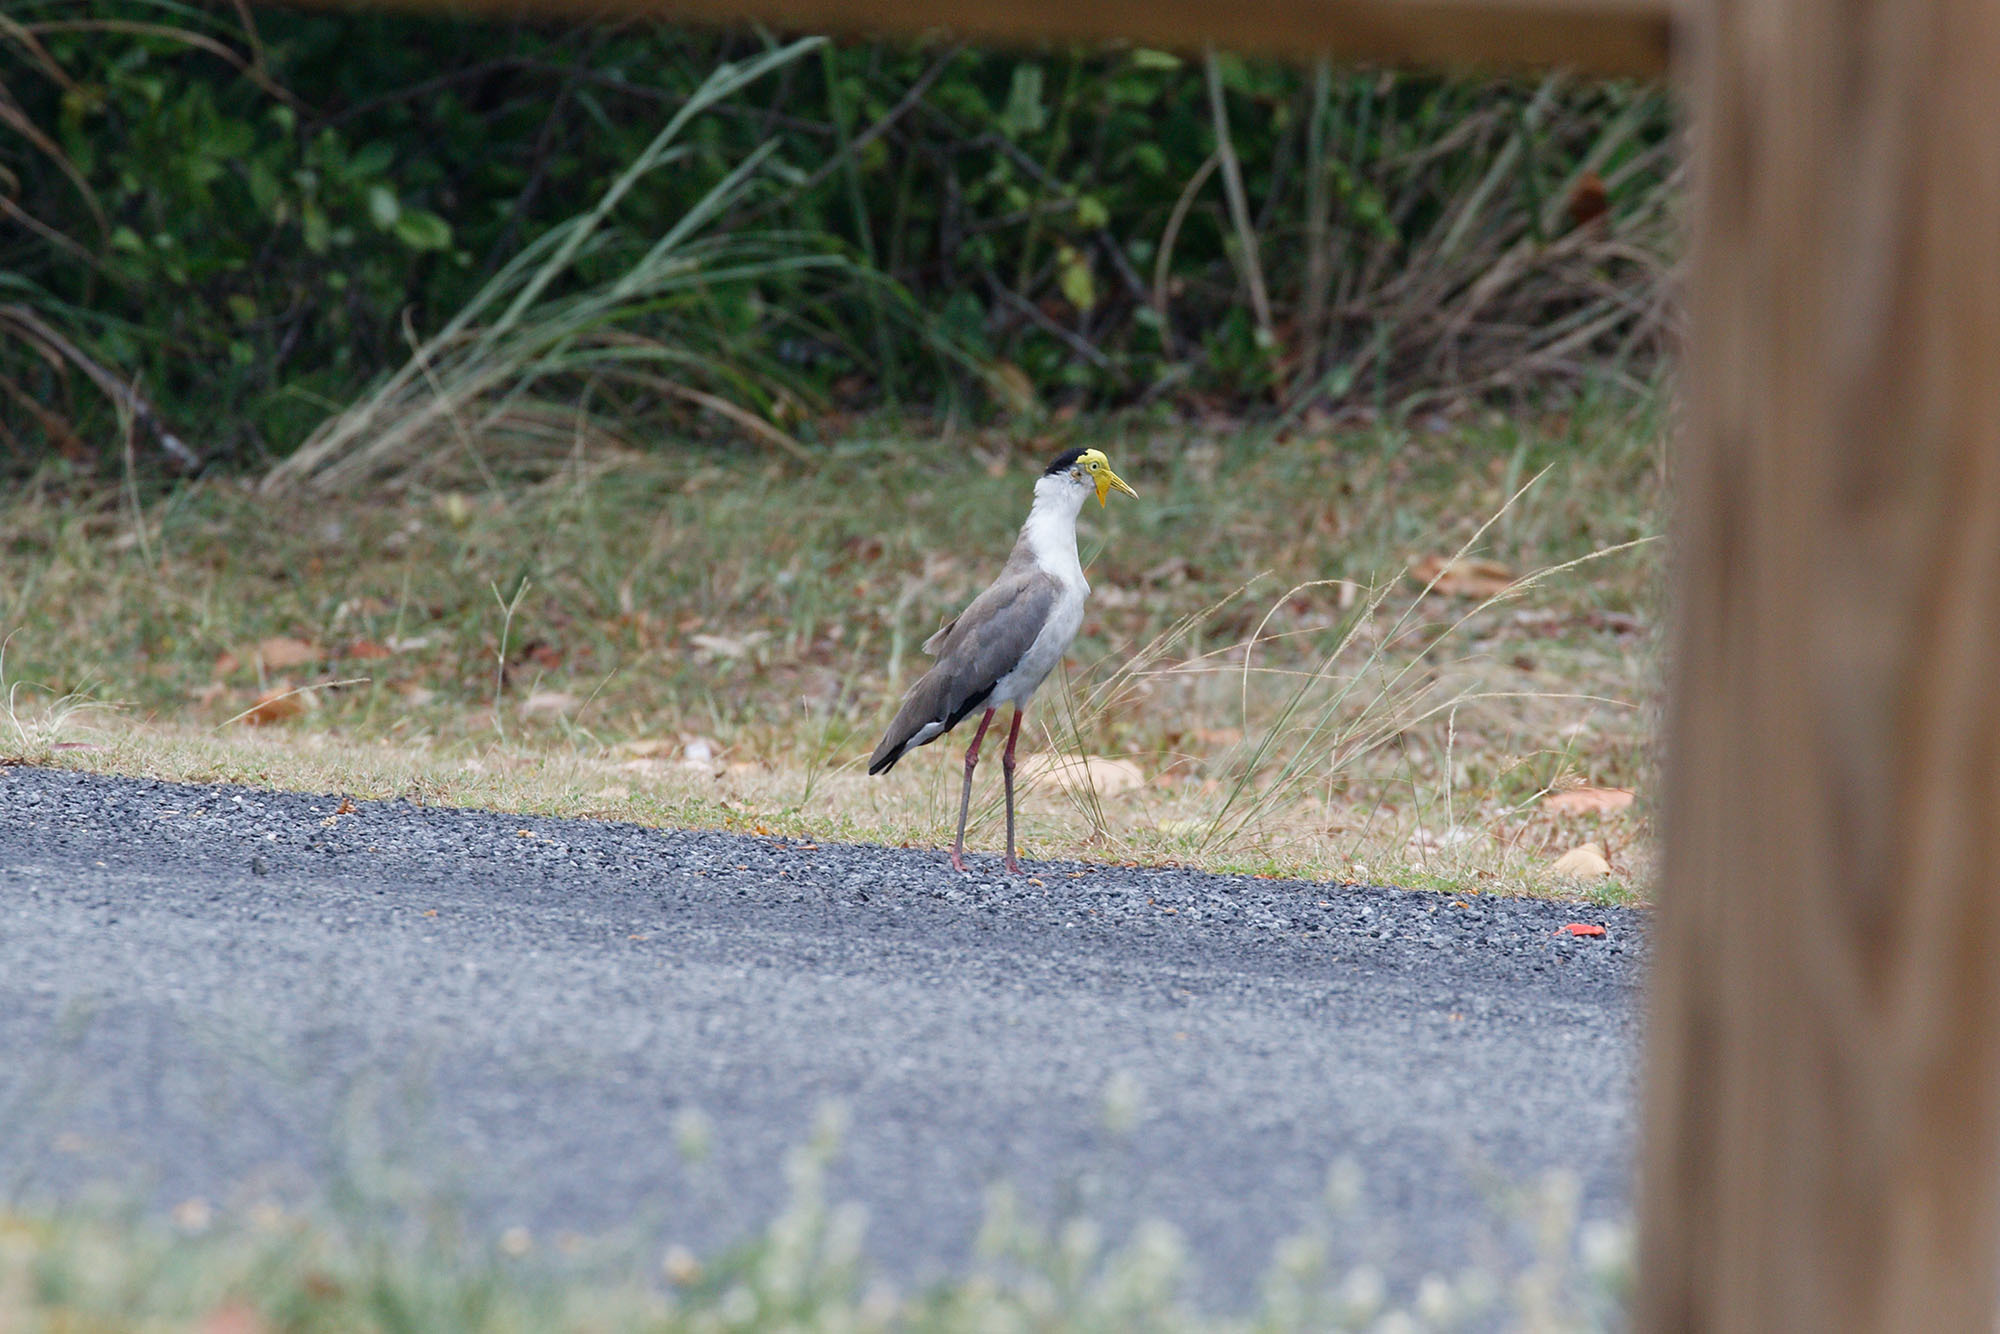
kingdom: Animalia
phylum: Chordata
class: Aves
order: Charadriiformes
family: Charadriidae
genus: Vanellus
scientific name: Vanellus miles
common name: Masked lapwing
